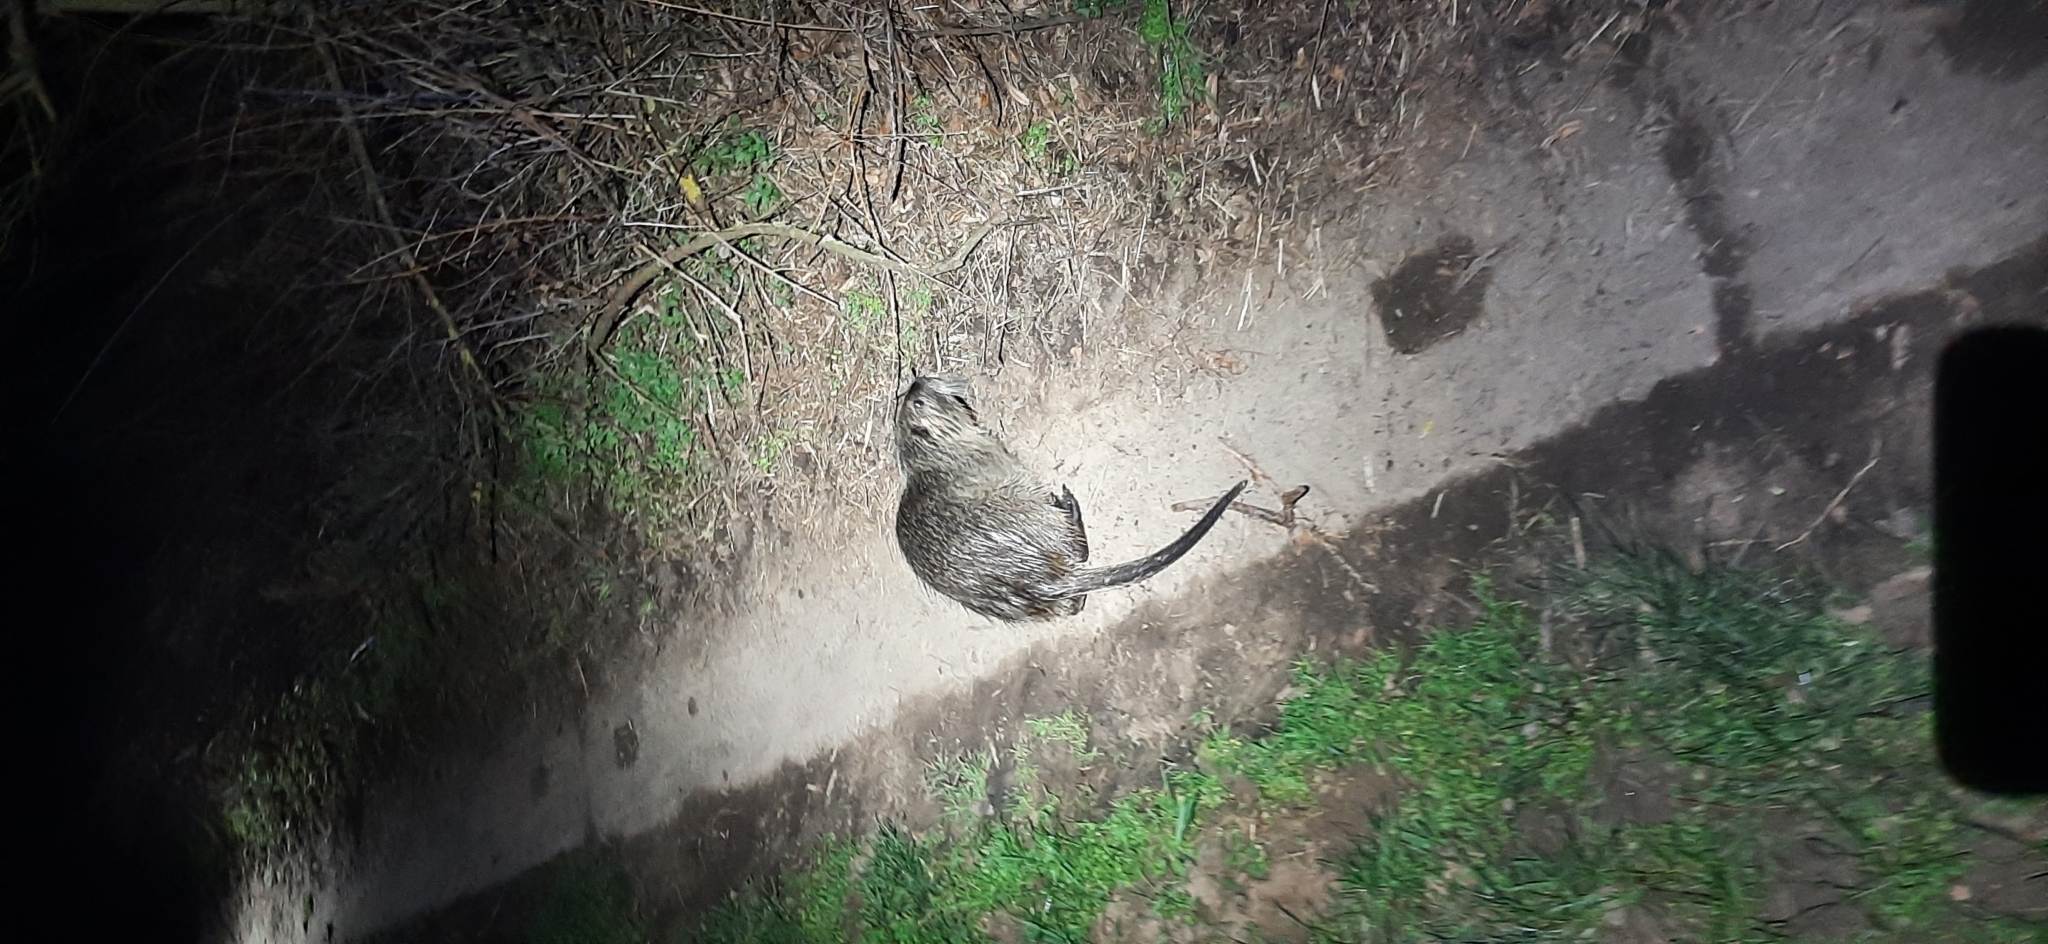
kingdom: Animalia
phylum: Chordata
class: Mammalia
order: Rodentia
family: Myocastoridae
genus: Myocastor
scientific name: Myocastor coypus
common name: Coypu
